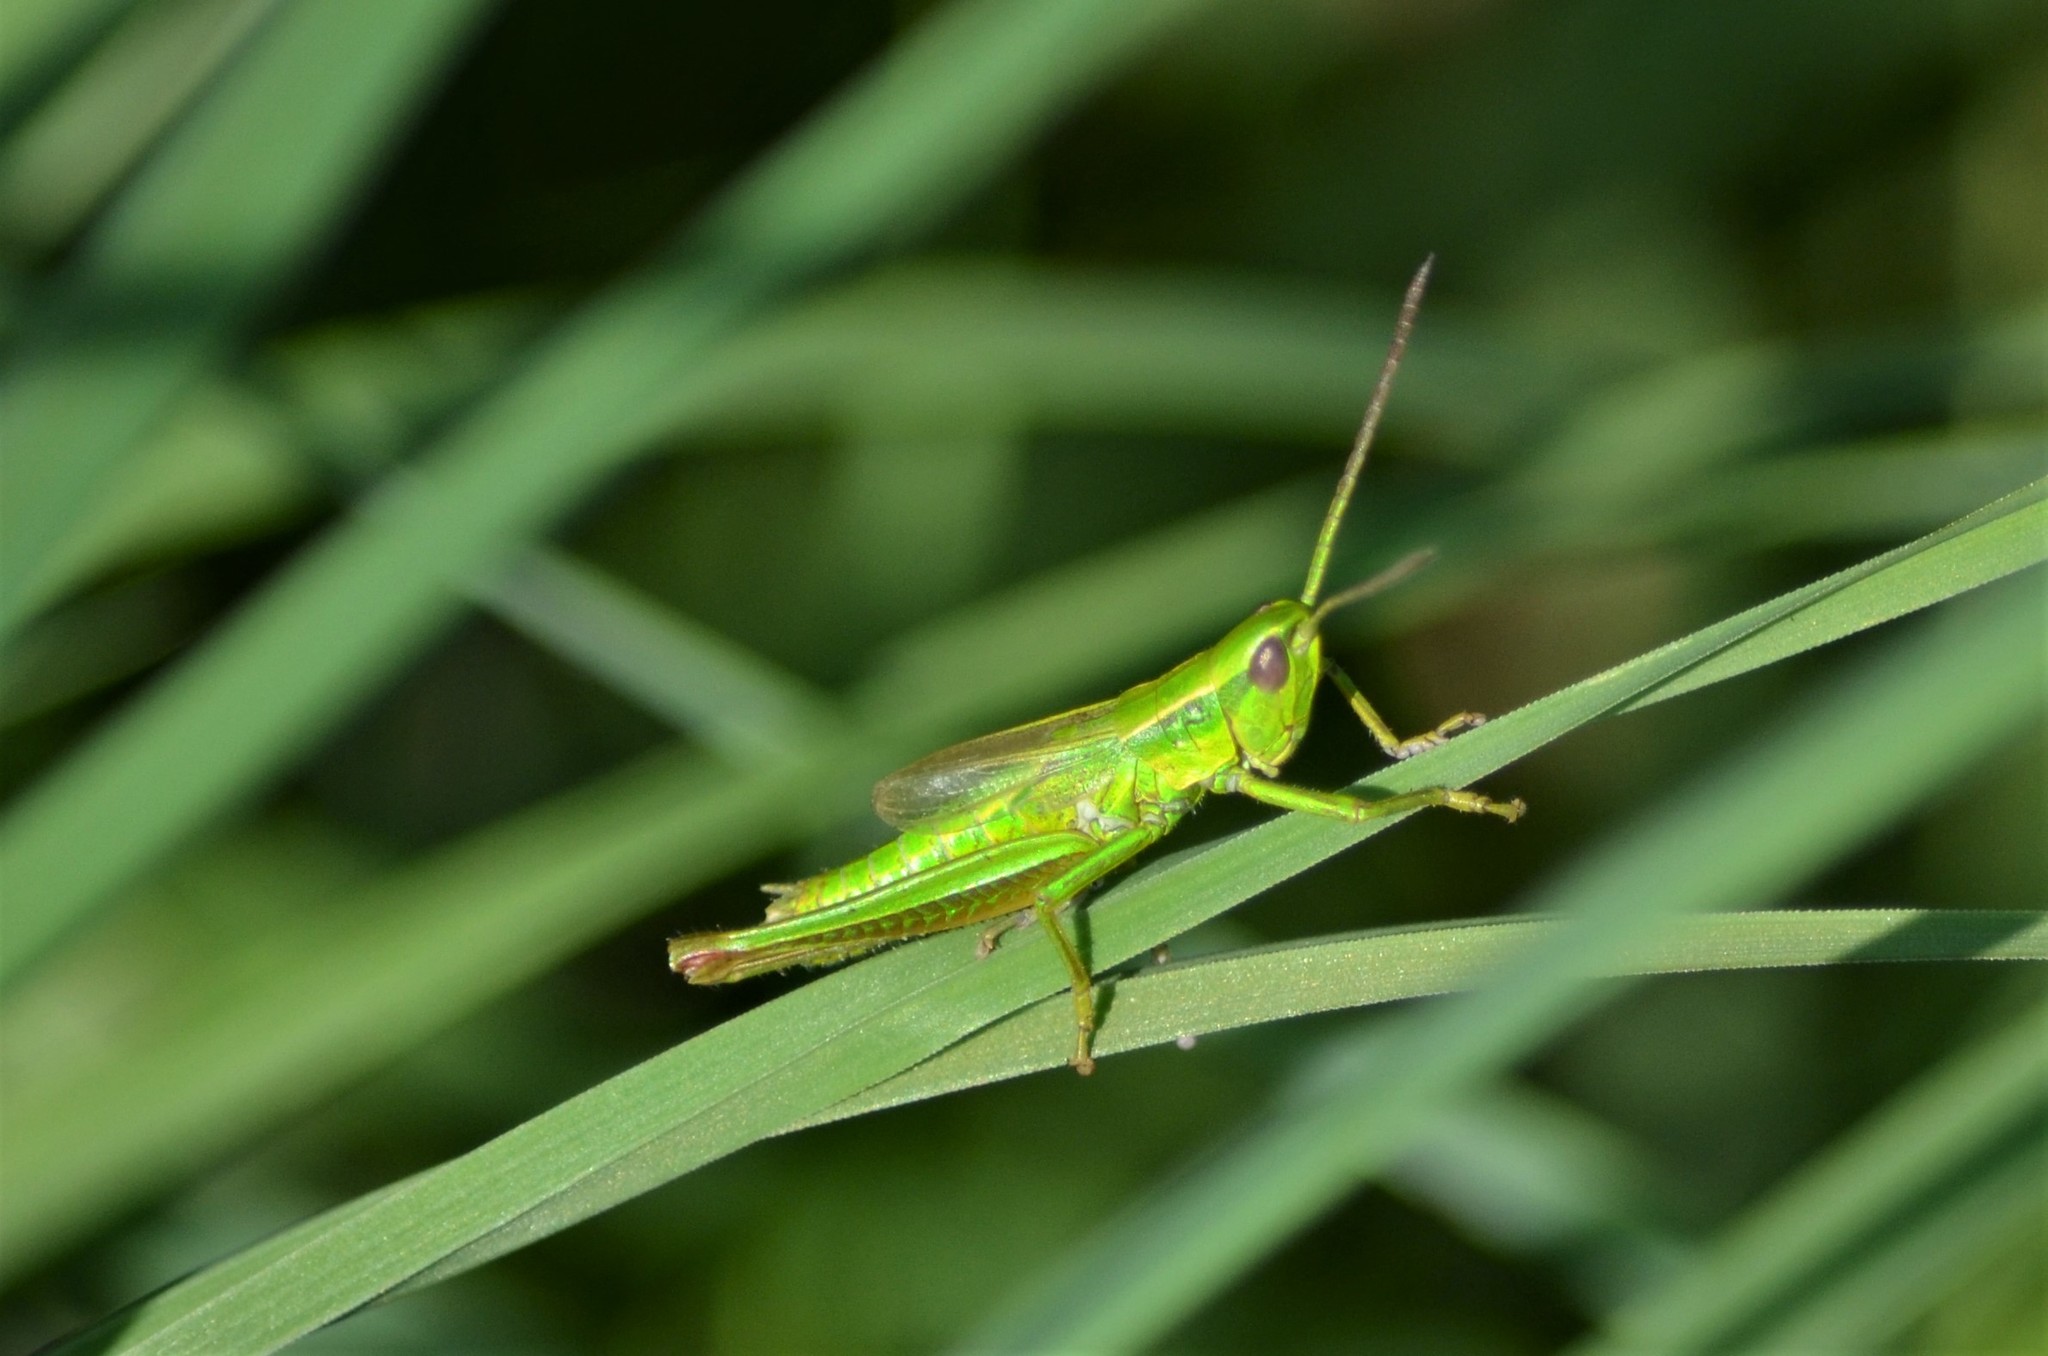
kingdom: Animalia
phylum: Arthropoda
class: Insecta
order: Orthoptera
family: Acrididae
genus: Euthystira
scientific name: Euthystira brachyptera
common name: Small gold grasshopper
